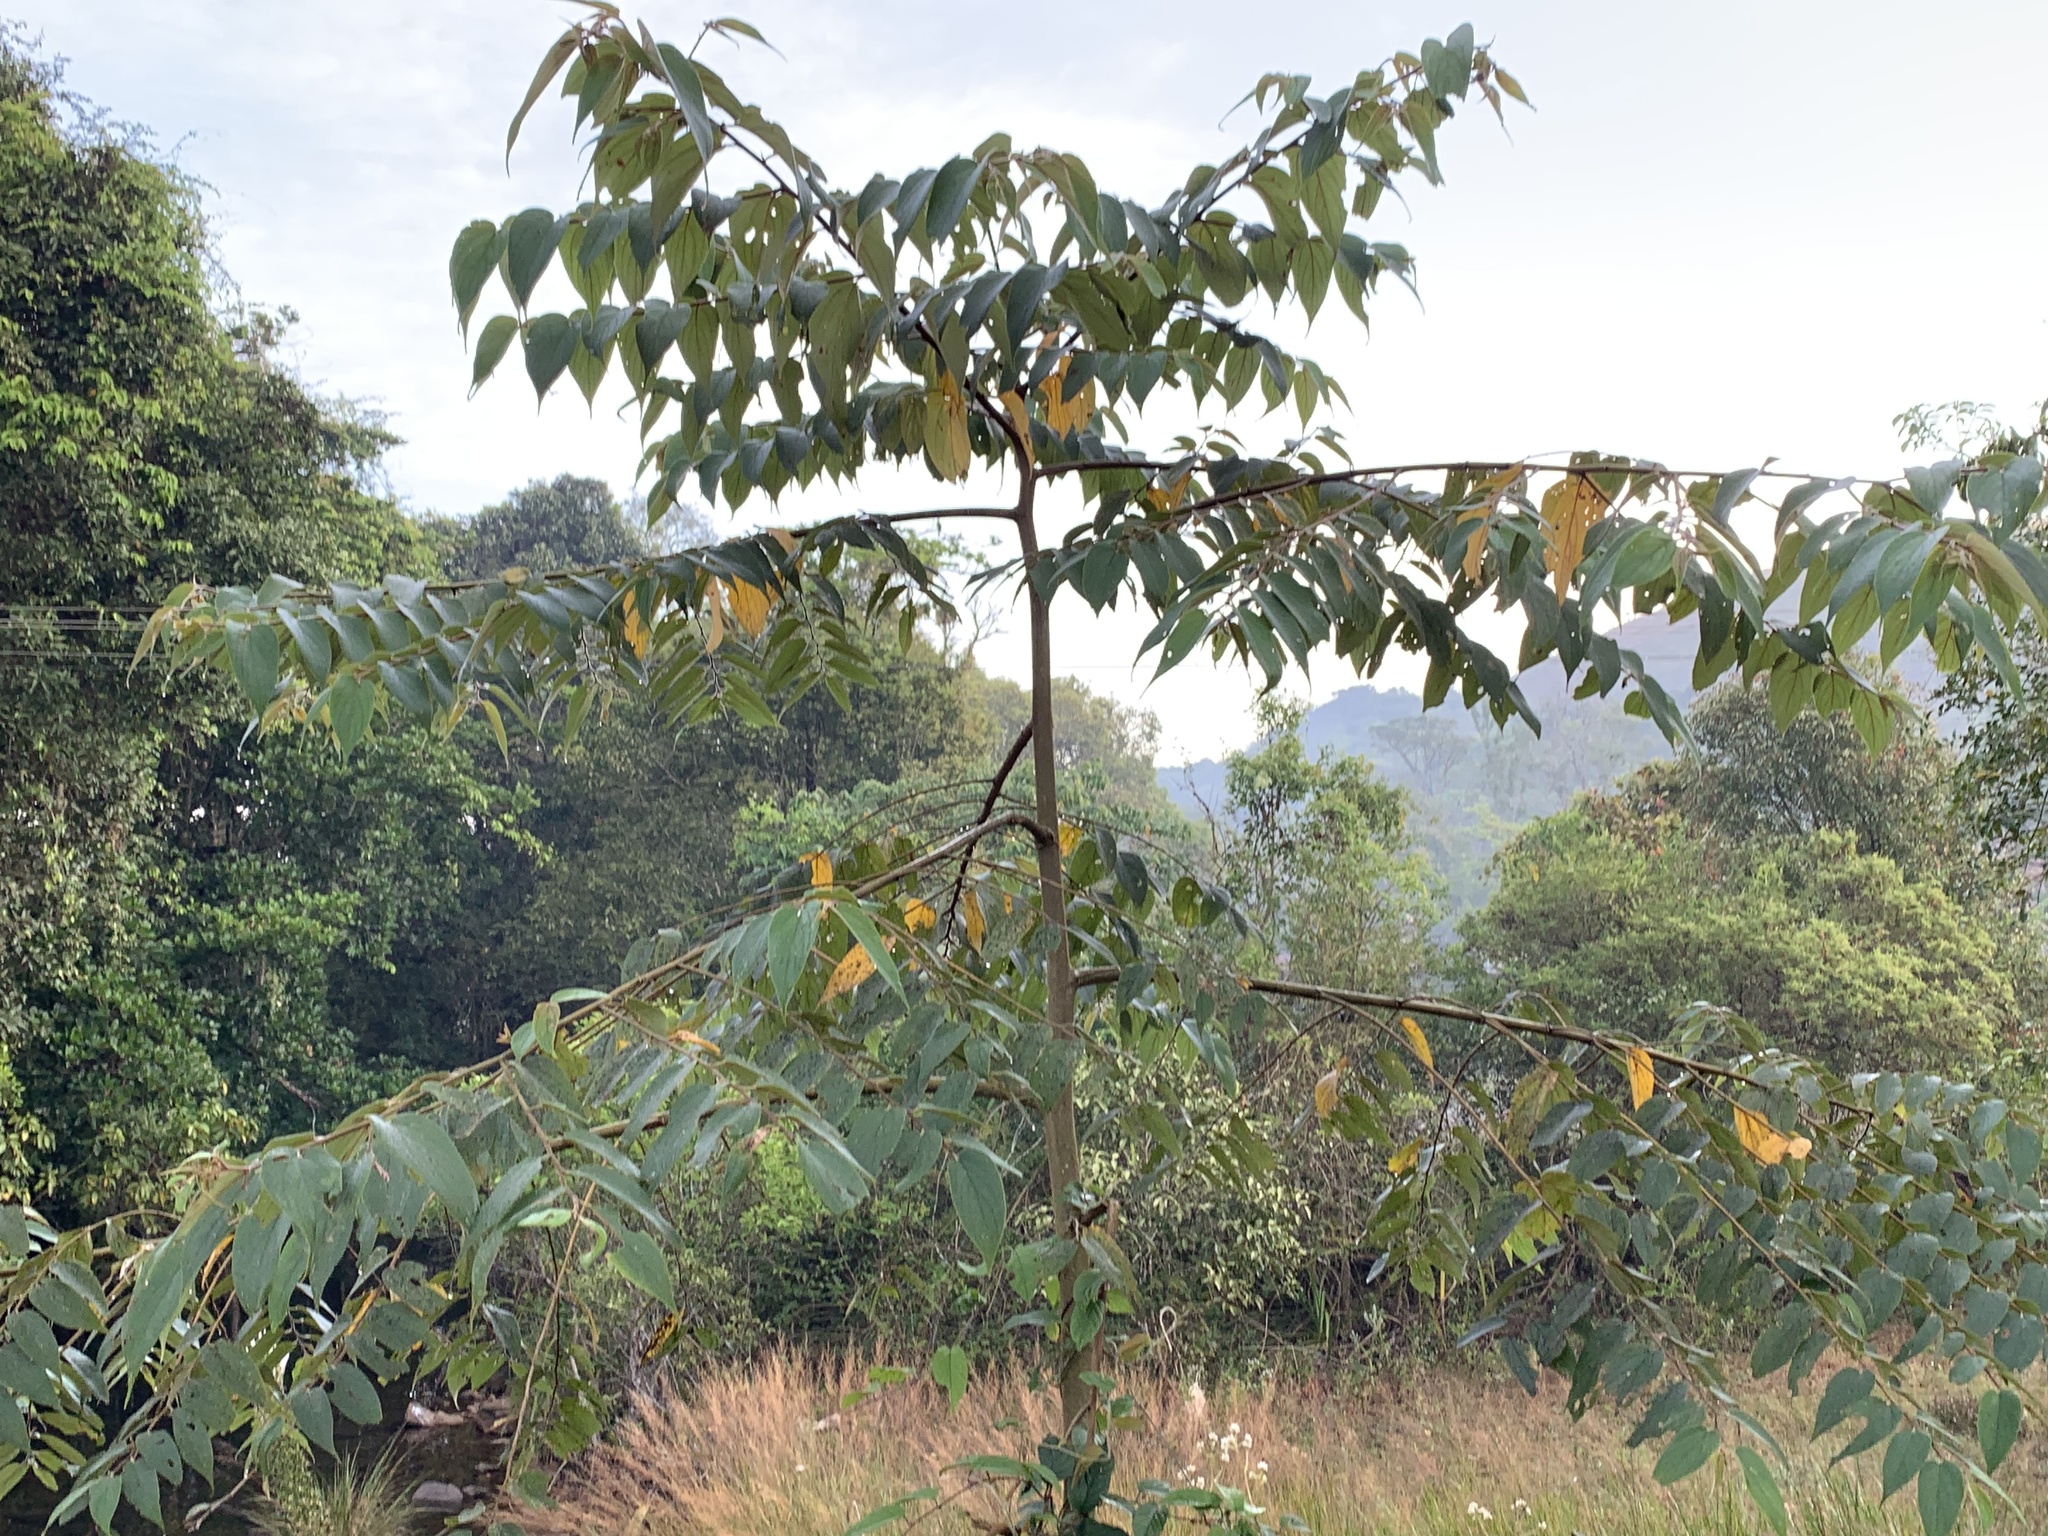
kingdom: Plantae
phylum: Tracheophyta
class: Magnoliopsida
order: Rosales
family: Cannabaceae
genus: Trema
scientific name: Trema orientale
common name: Indian charcoal tree
